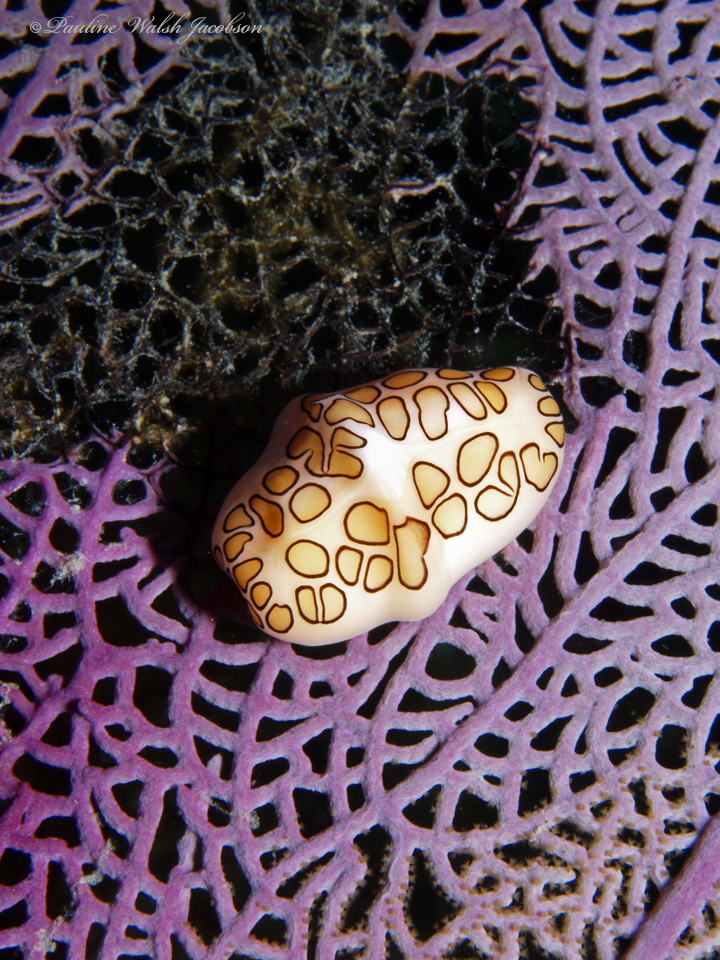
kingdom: Animalia
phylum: Mollusca
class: Gastropoda
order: Littorinimorpha
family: Ovulidae
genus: Cyphoma
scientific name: Cyphoma gibbosum
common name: Flamingo tongue
